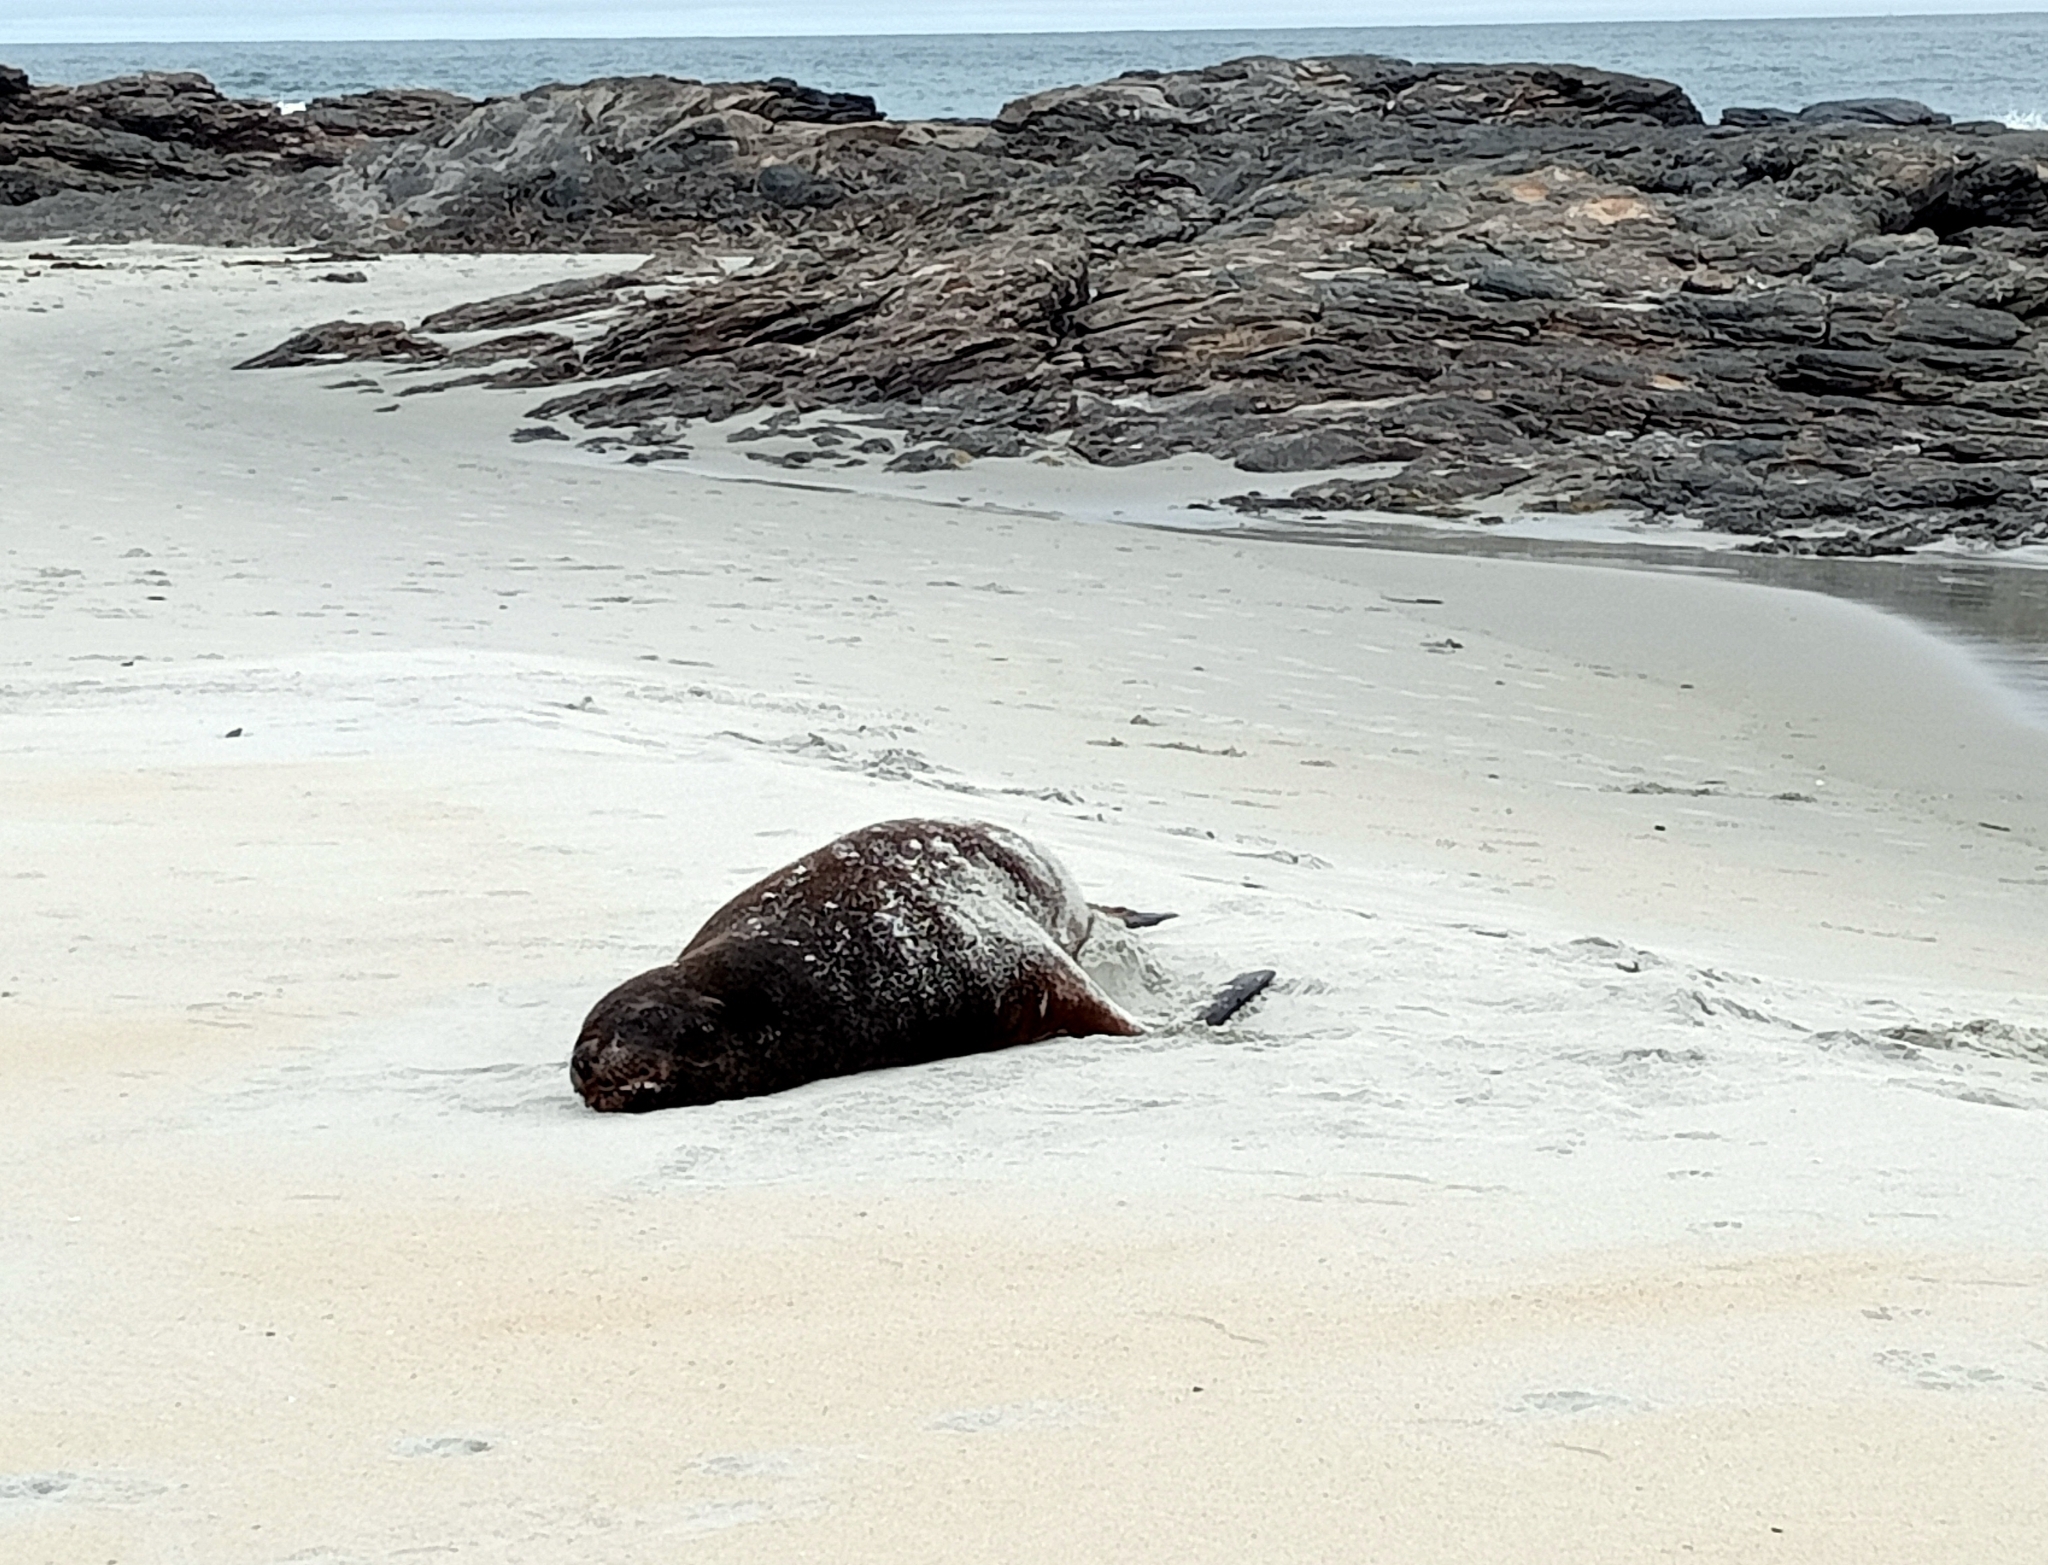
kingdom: Animalia
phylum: Chordata
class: Mammalia
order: Carnivora
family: Otariidae
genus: Phocarctos
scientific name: Phocarctos hookeri
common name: New zealand sea lion
